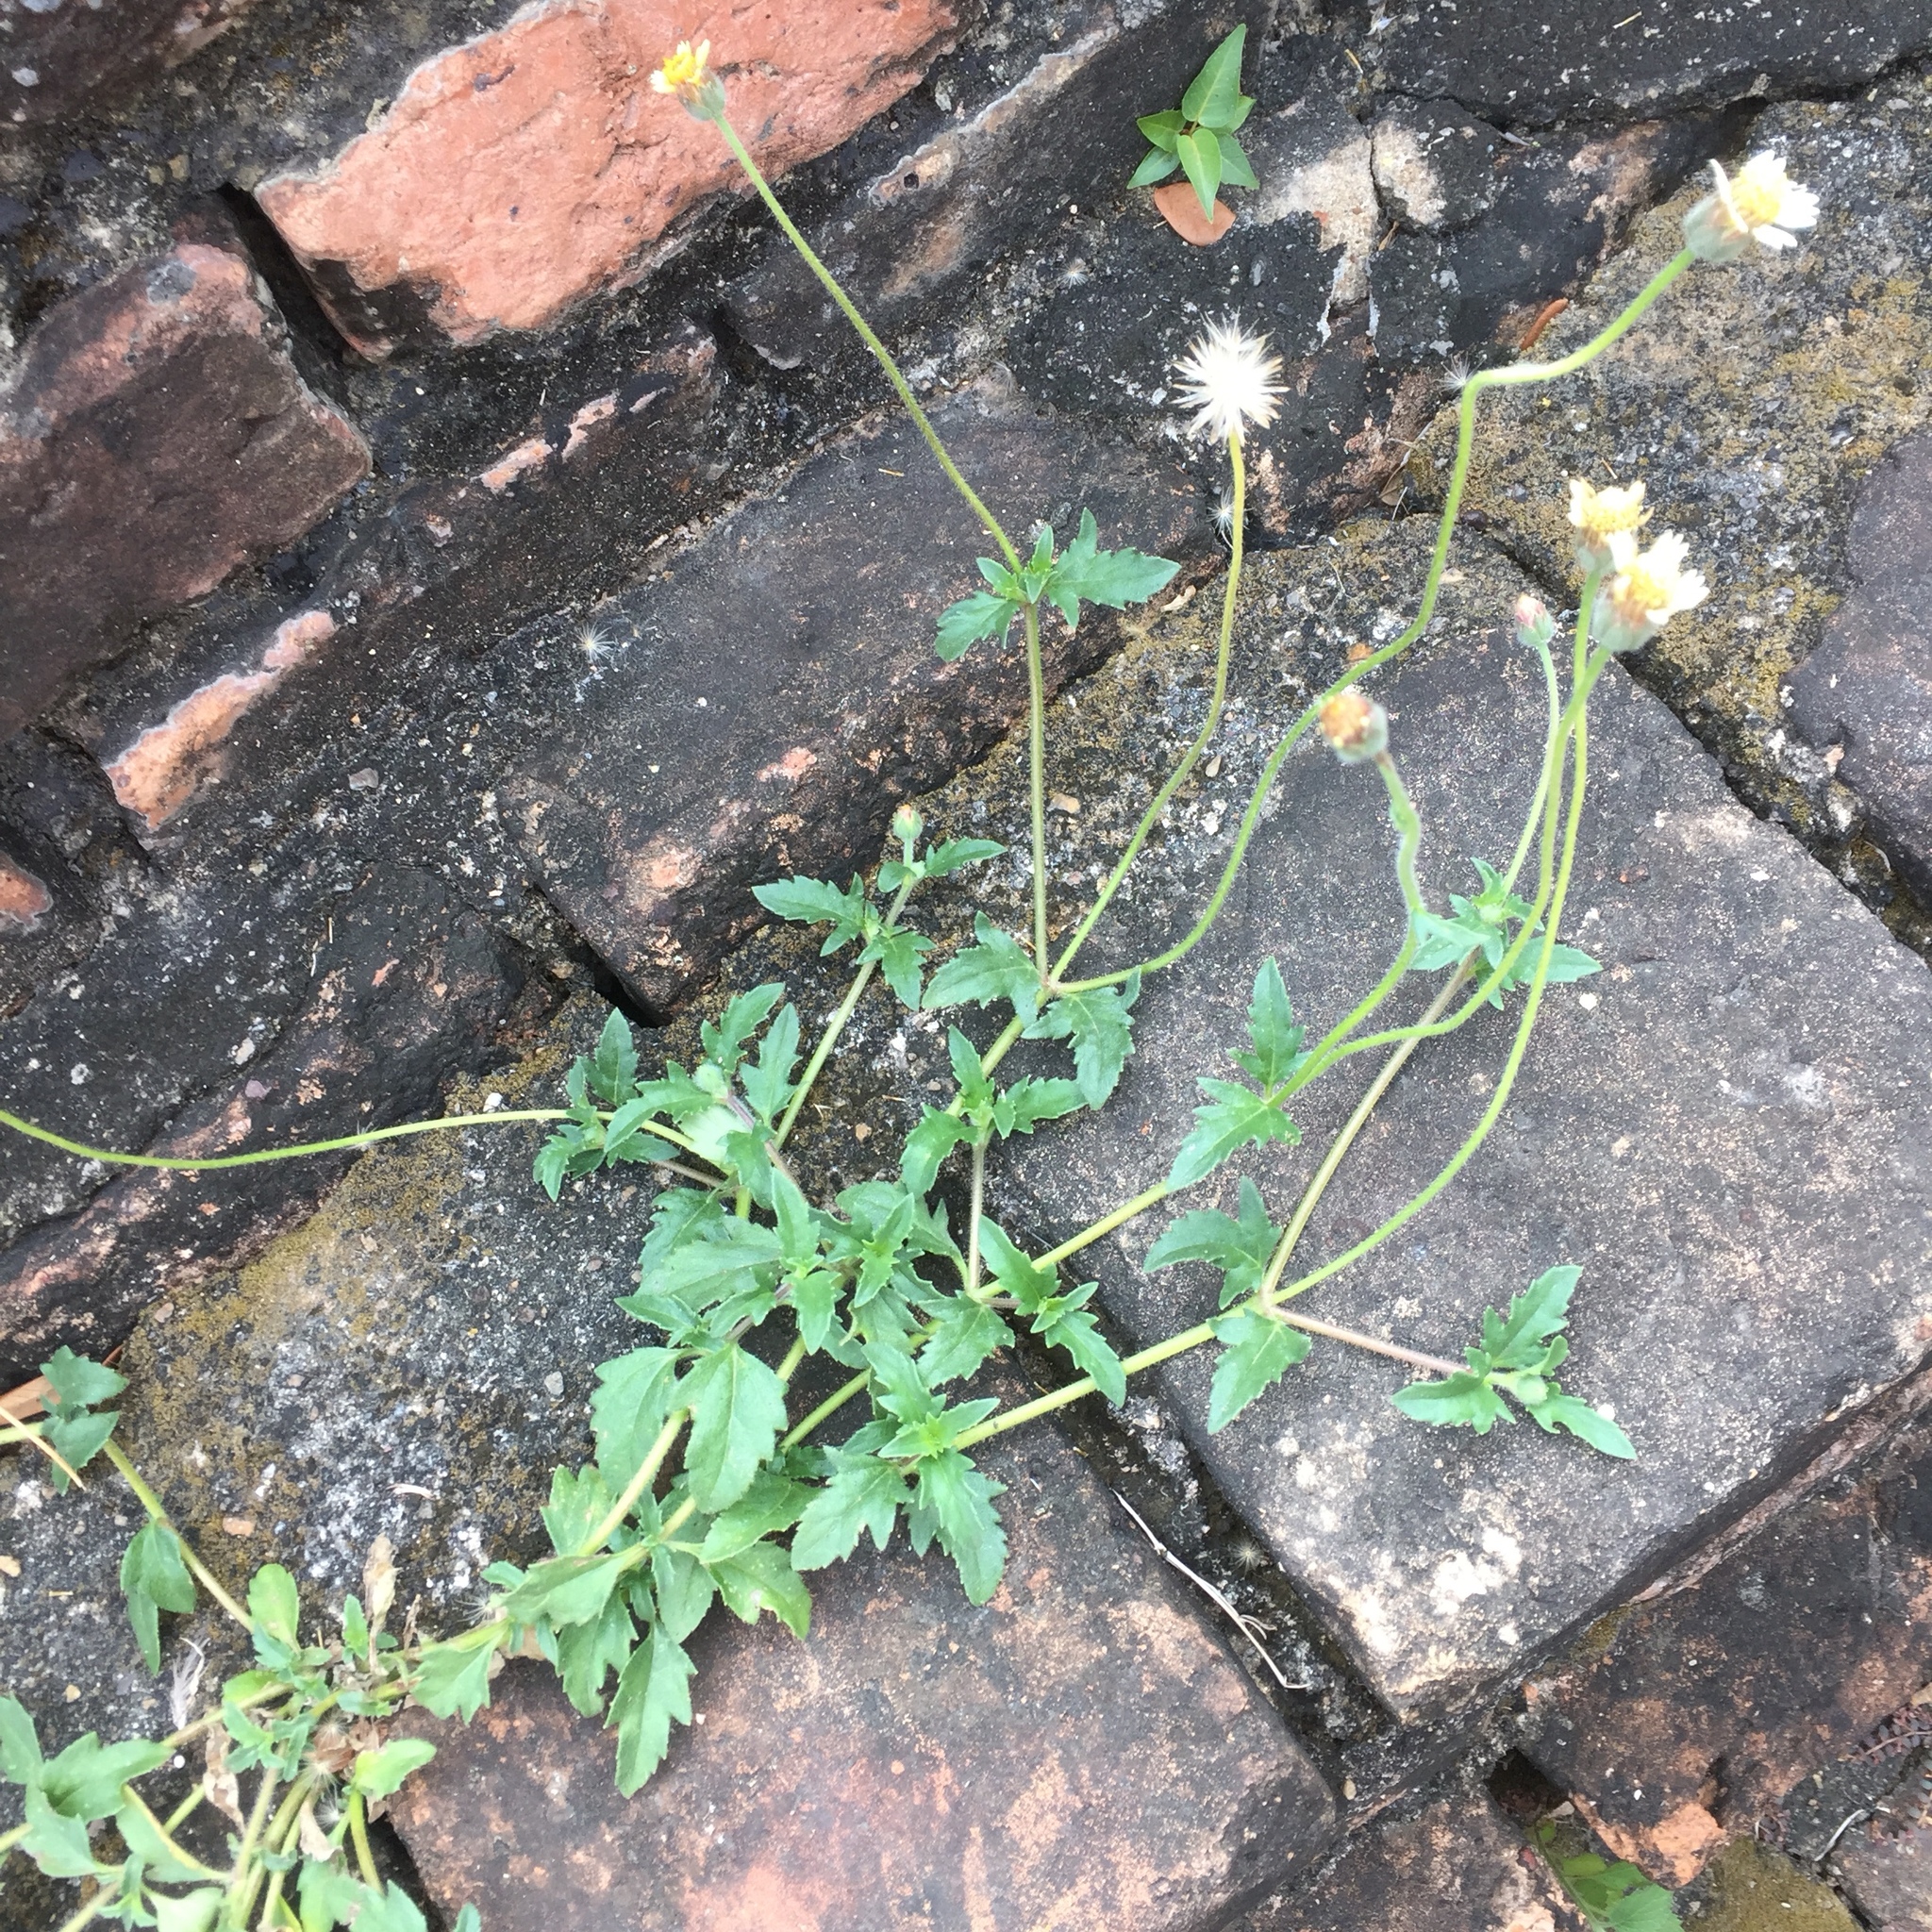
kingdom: Plantae
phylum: Tracheophyta
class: Magnoliopsida
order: Asterales
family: Asteraceae
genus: Tridax
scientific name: Tridax procumbens
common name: Coatbuttons
